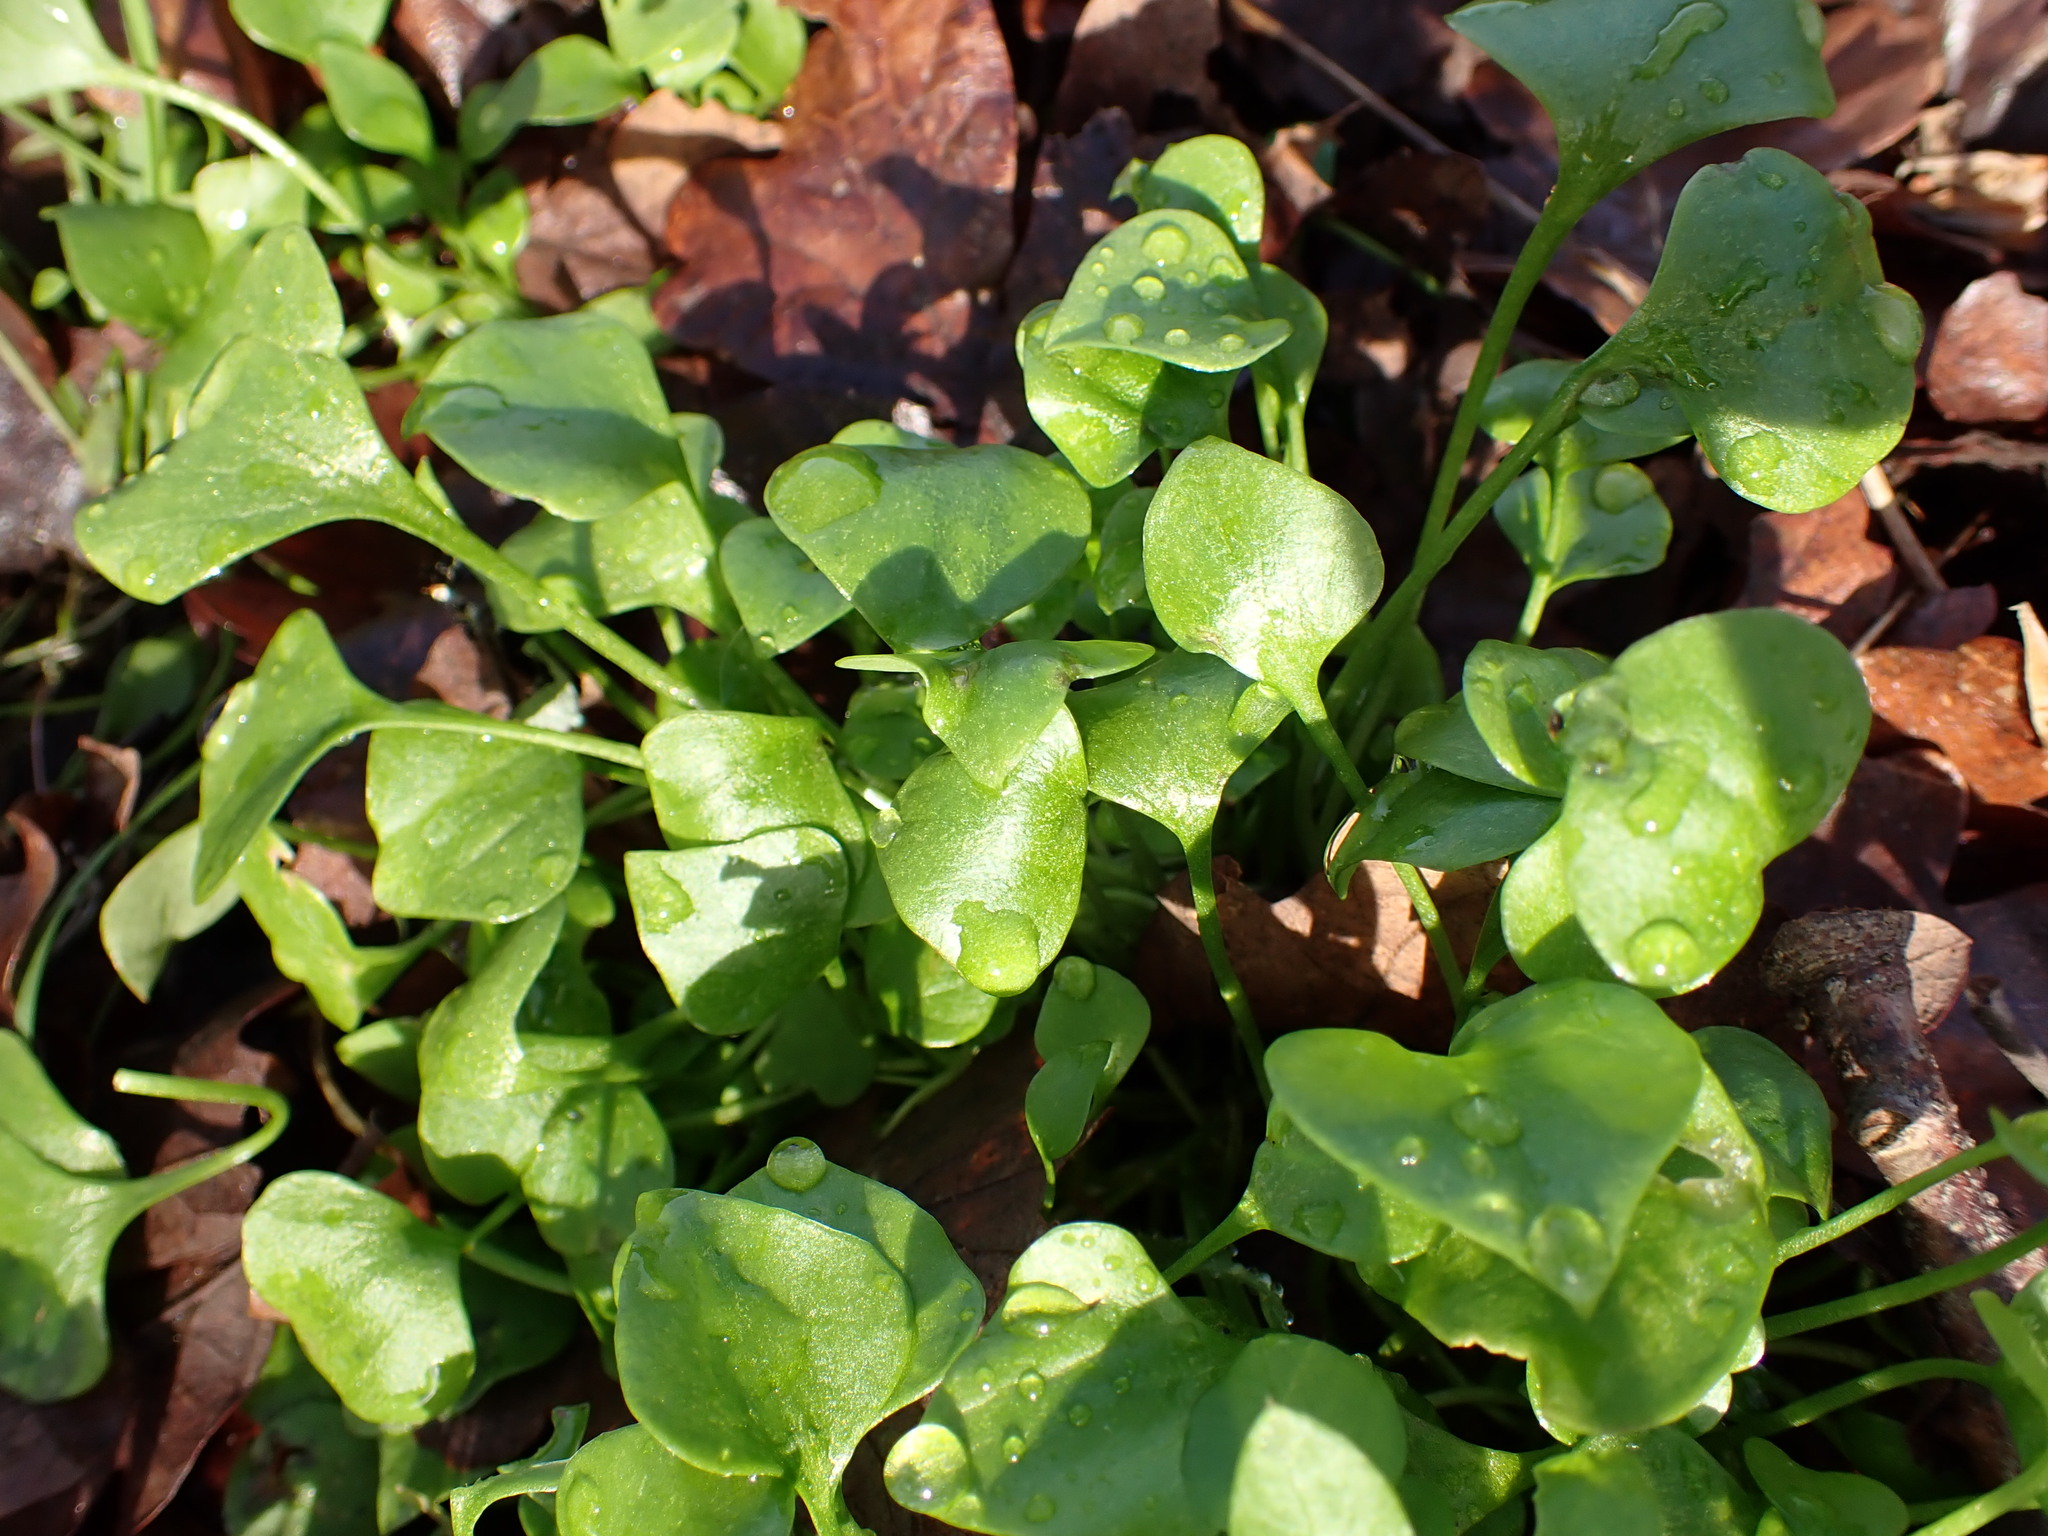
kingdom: Plantae
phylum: Tracheophyta
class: Magnoliopsida
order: Caryophyllales
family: Montiaceae
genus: Claytonia
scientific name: Claytonia perfoliata
